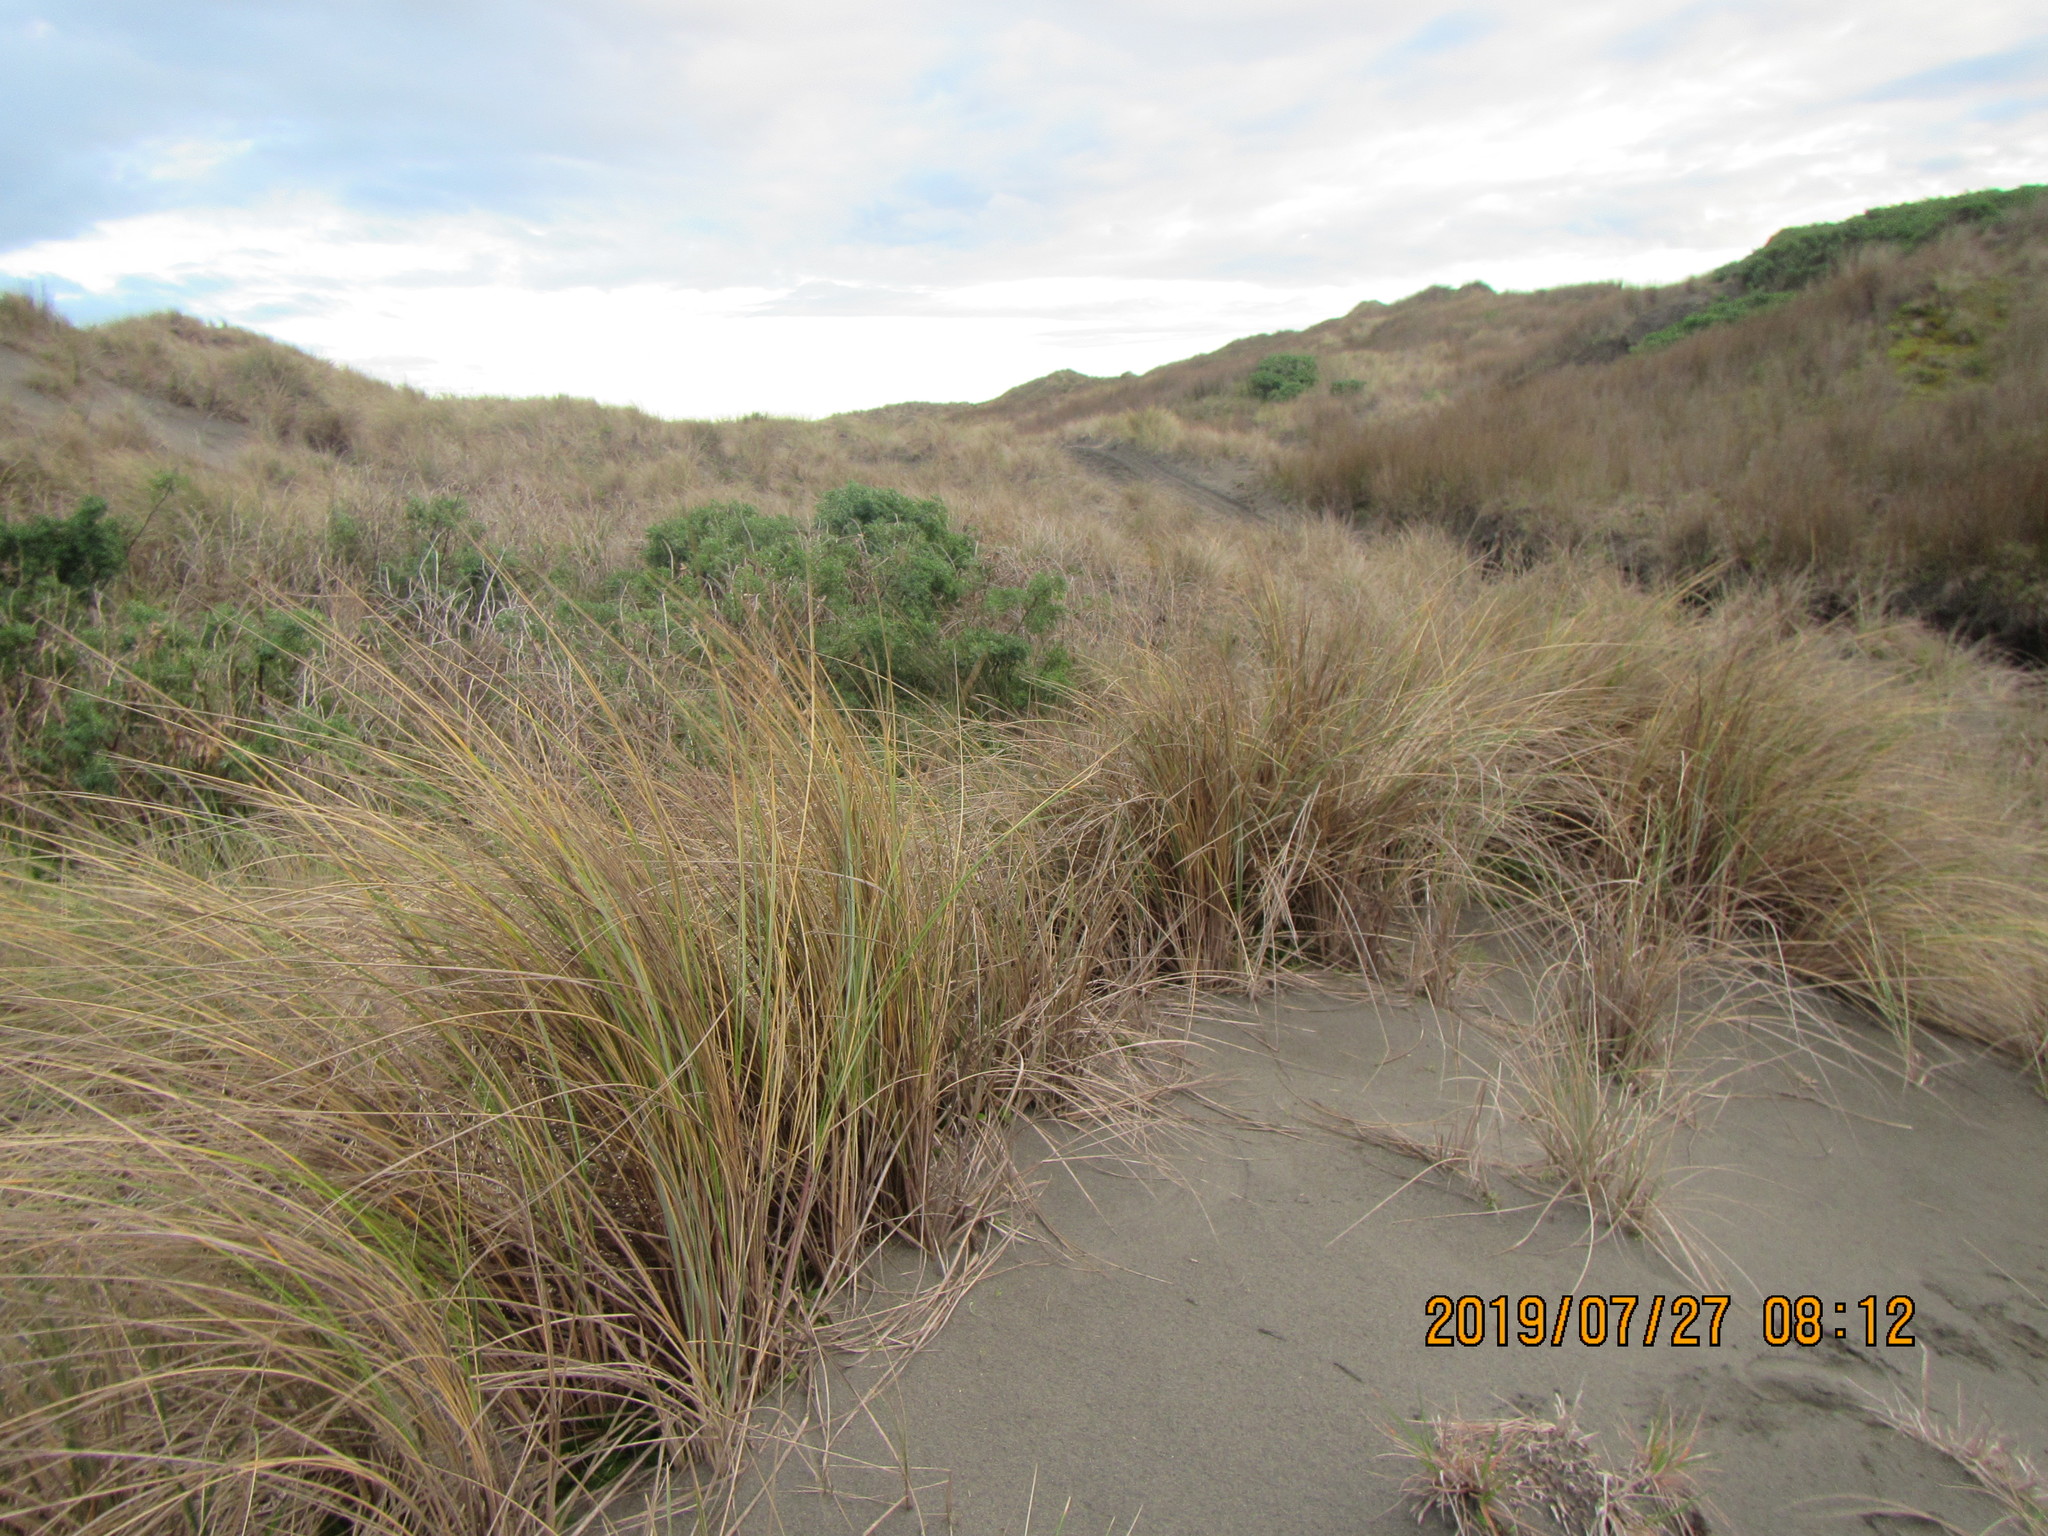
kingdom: Plantae
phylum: Tracheophyta
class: Liliopsida
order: Poales
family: Poaceae
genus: Calamagrostis
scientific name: Calamagrostis arenaria
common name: European beachgrass
